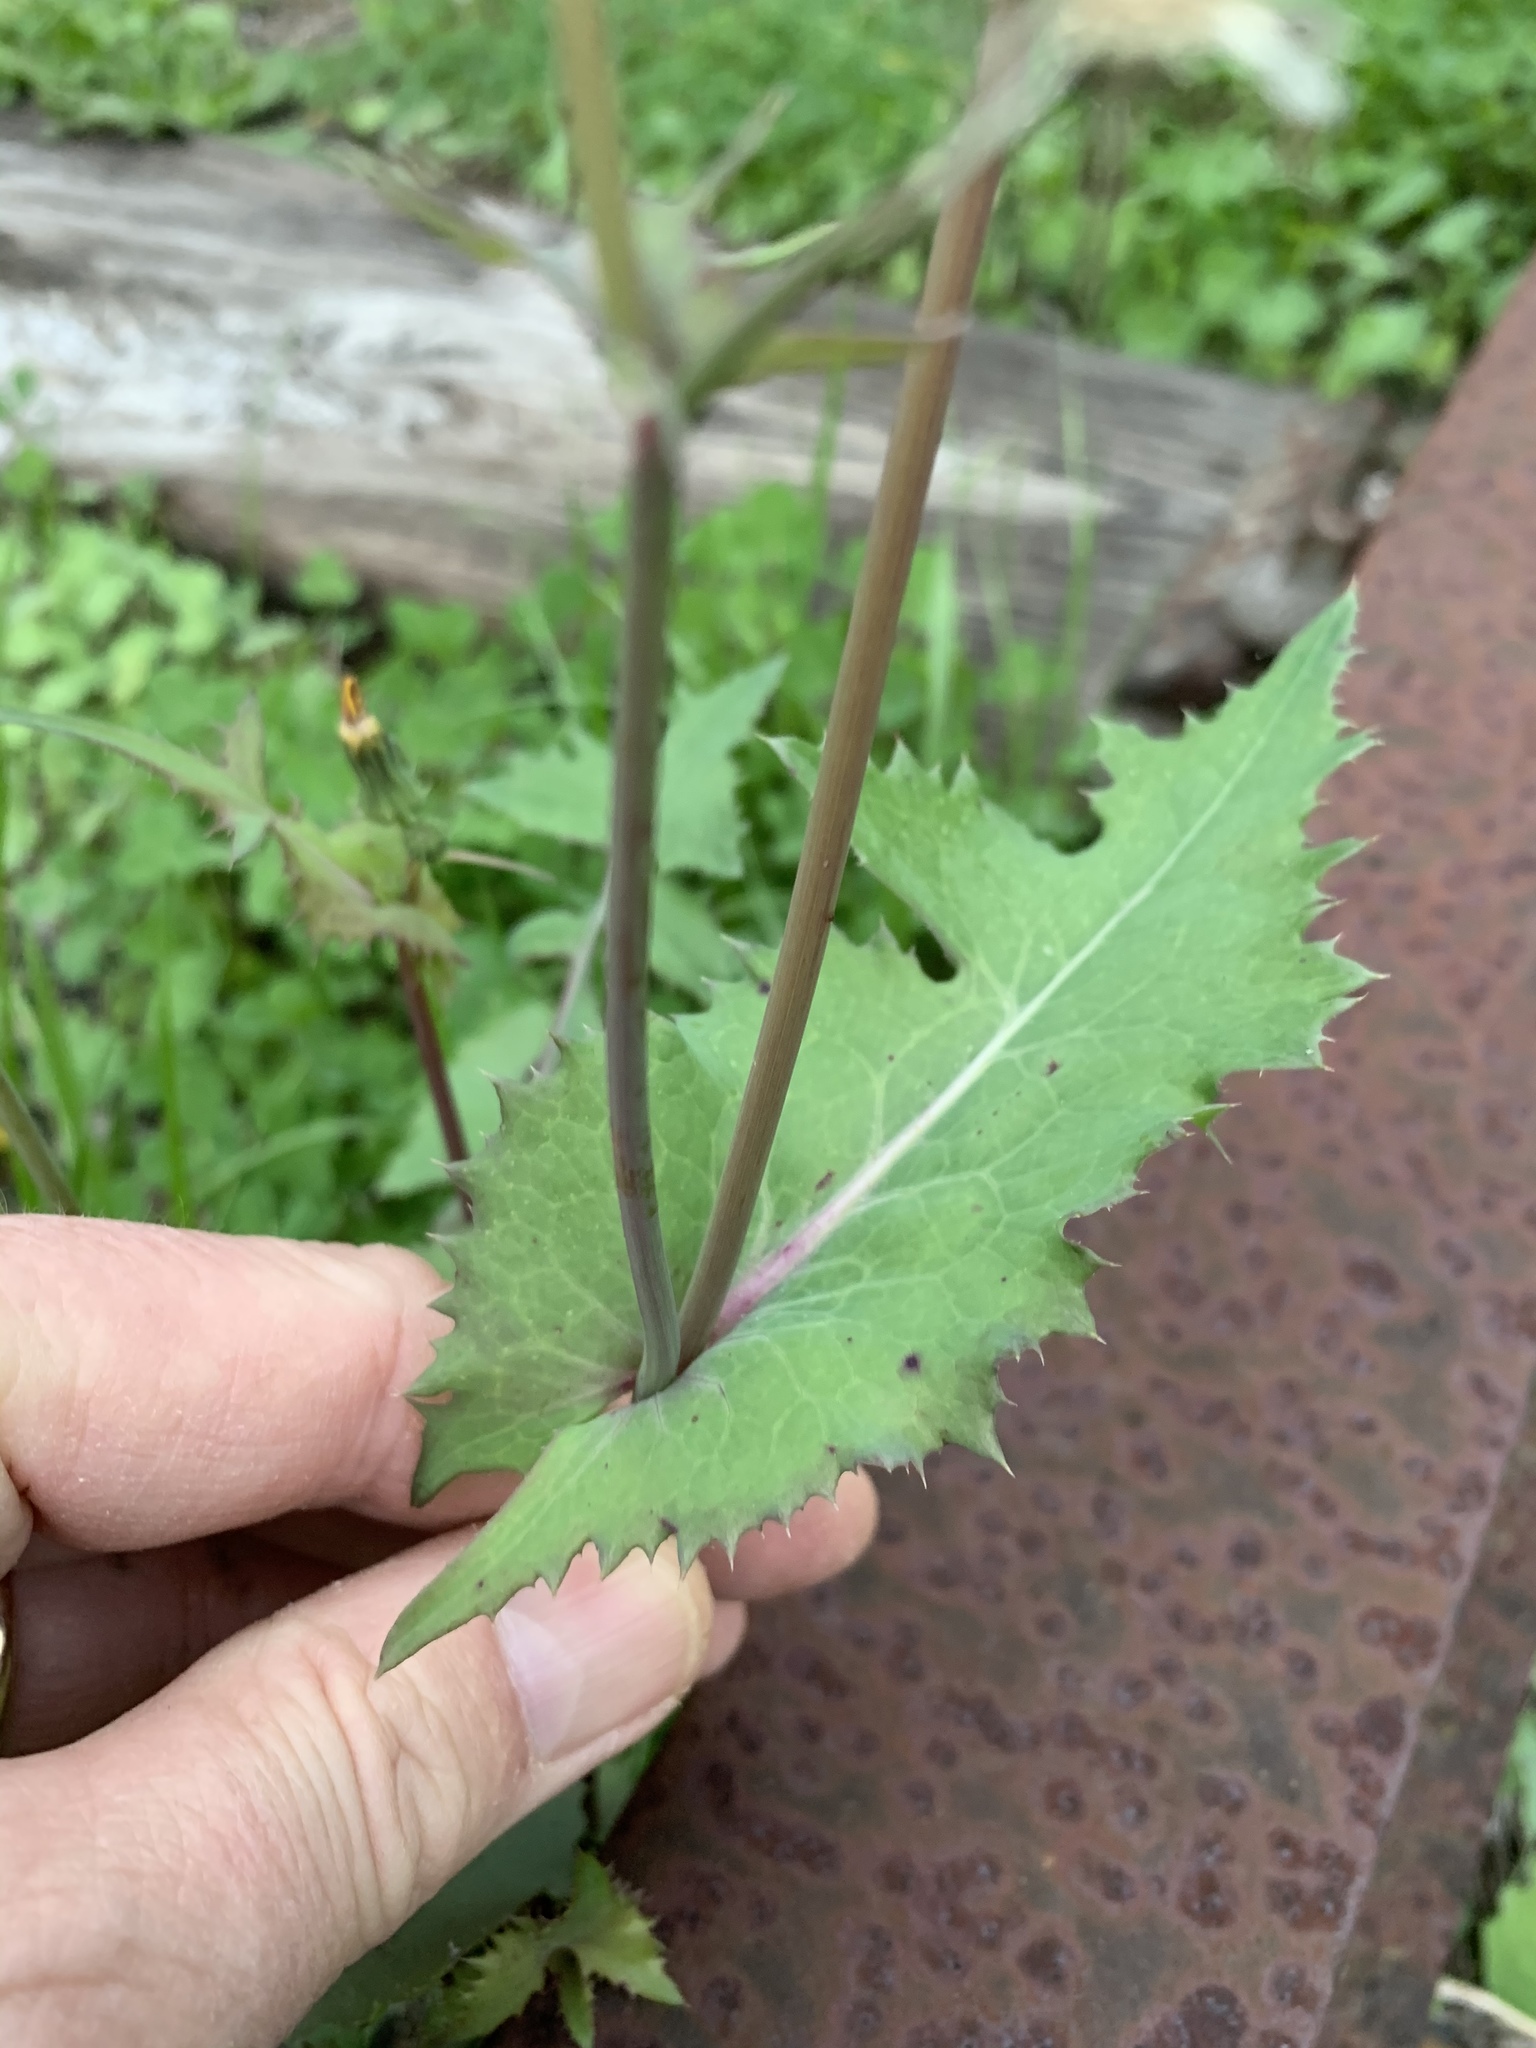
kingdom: Plantae
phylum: Tracheophyta
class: Magnoliopsida
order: Asterales
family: Asteraceae
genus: Sonchus
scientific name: Sonchus oleraceus
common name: Common sowthistle
